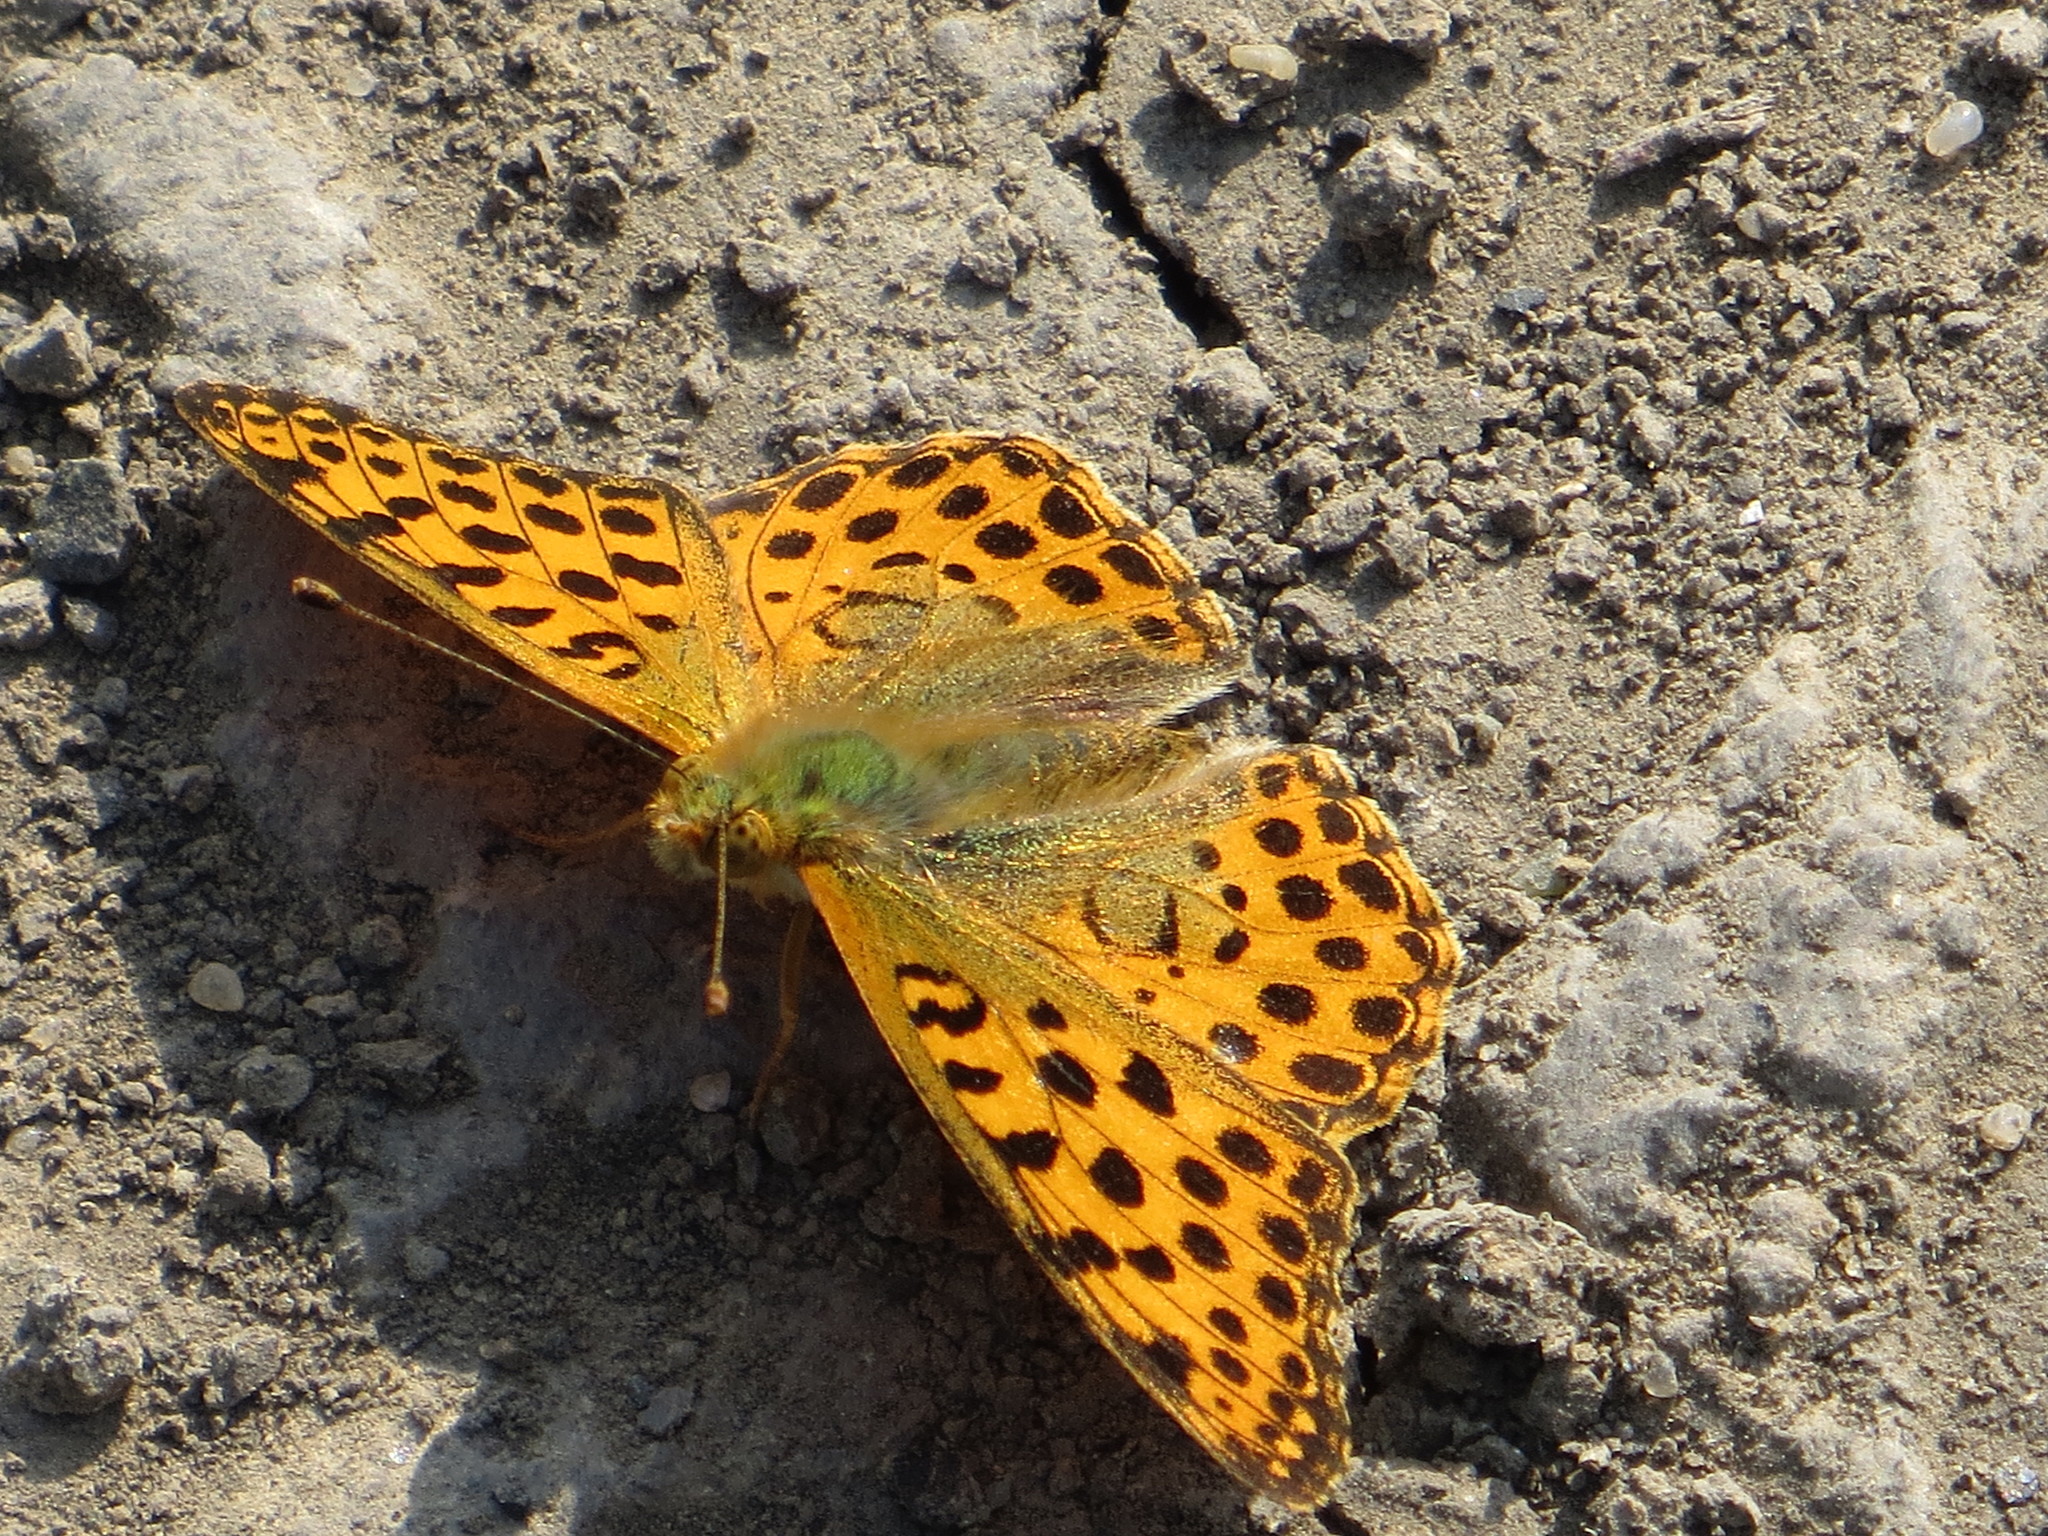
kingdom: Animalia
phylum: Arthropoda
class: Insecta
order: Lepidoptera
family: Nymphalidae
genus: Issoria
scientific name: Issoria lathonia
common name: Queen of spain fritillary
